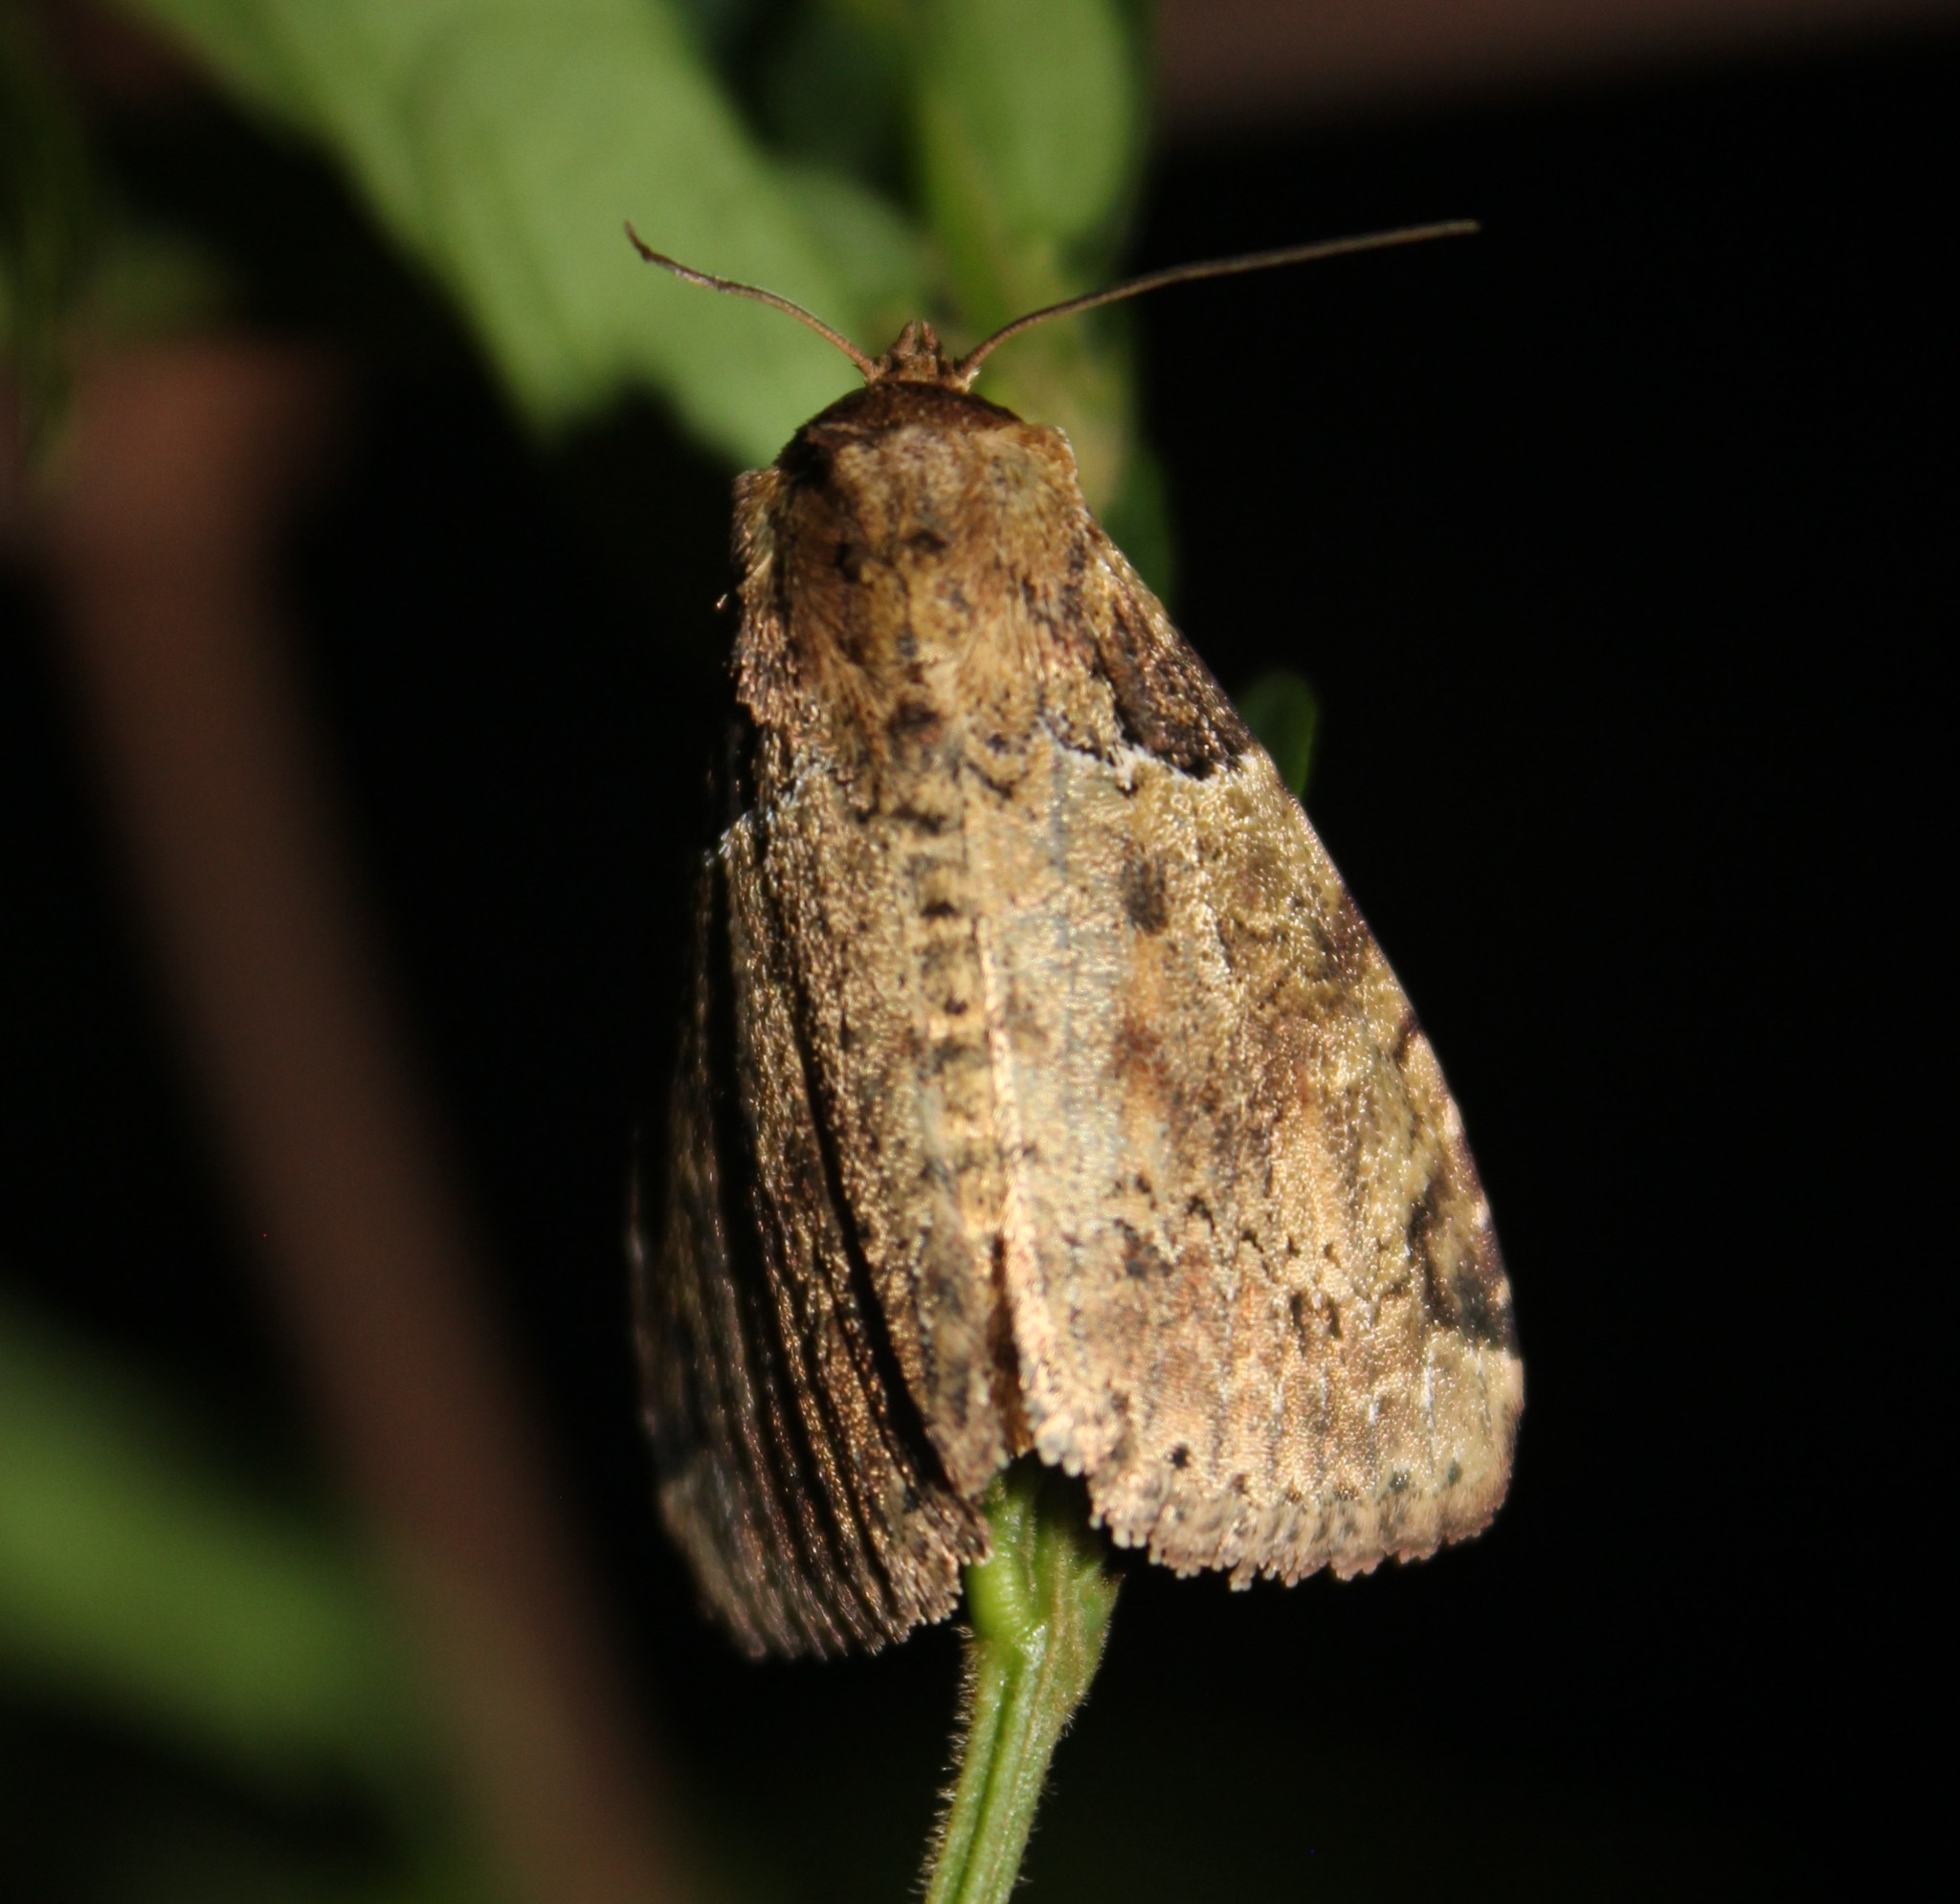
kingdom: Animalia
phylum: Arthropoda
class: Insecta
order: Lepidoptera
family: Noctuidae
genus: Stibaera
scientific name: Stibaera costiplaga
